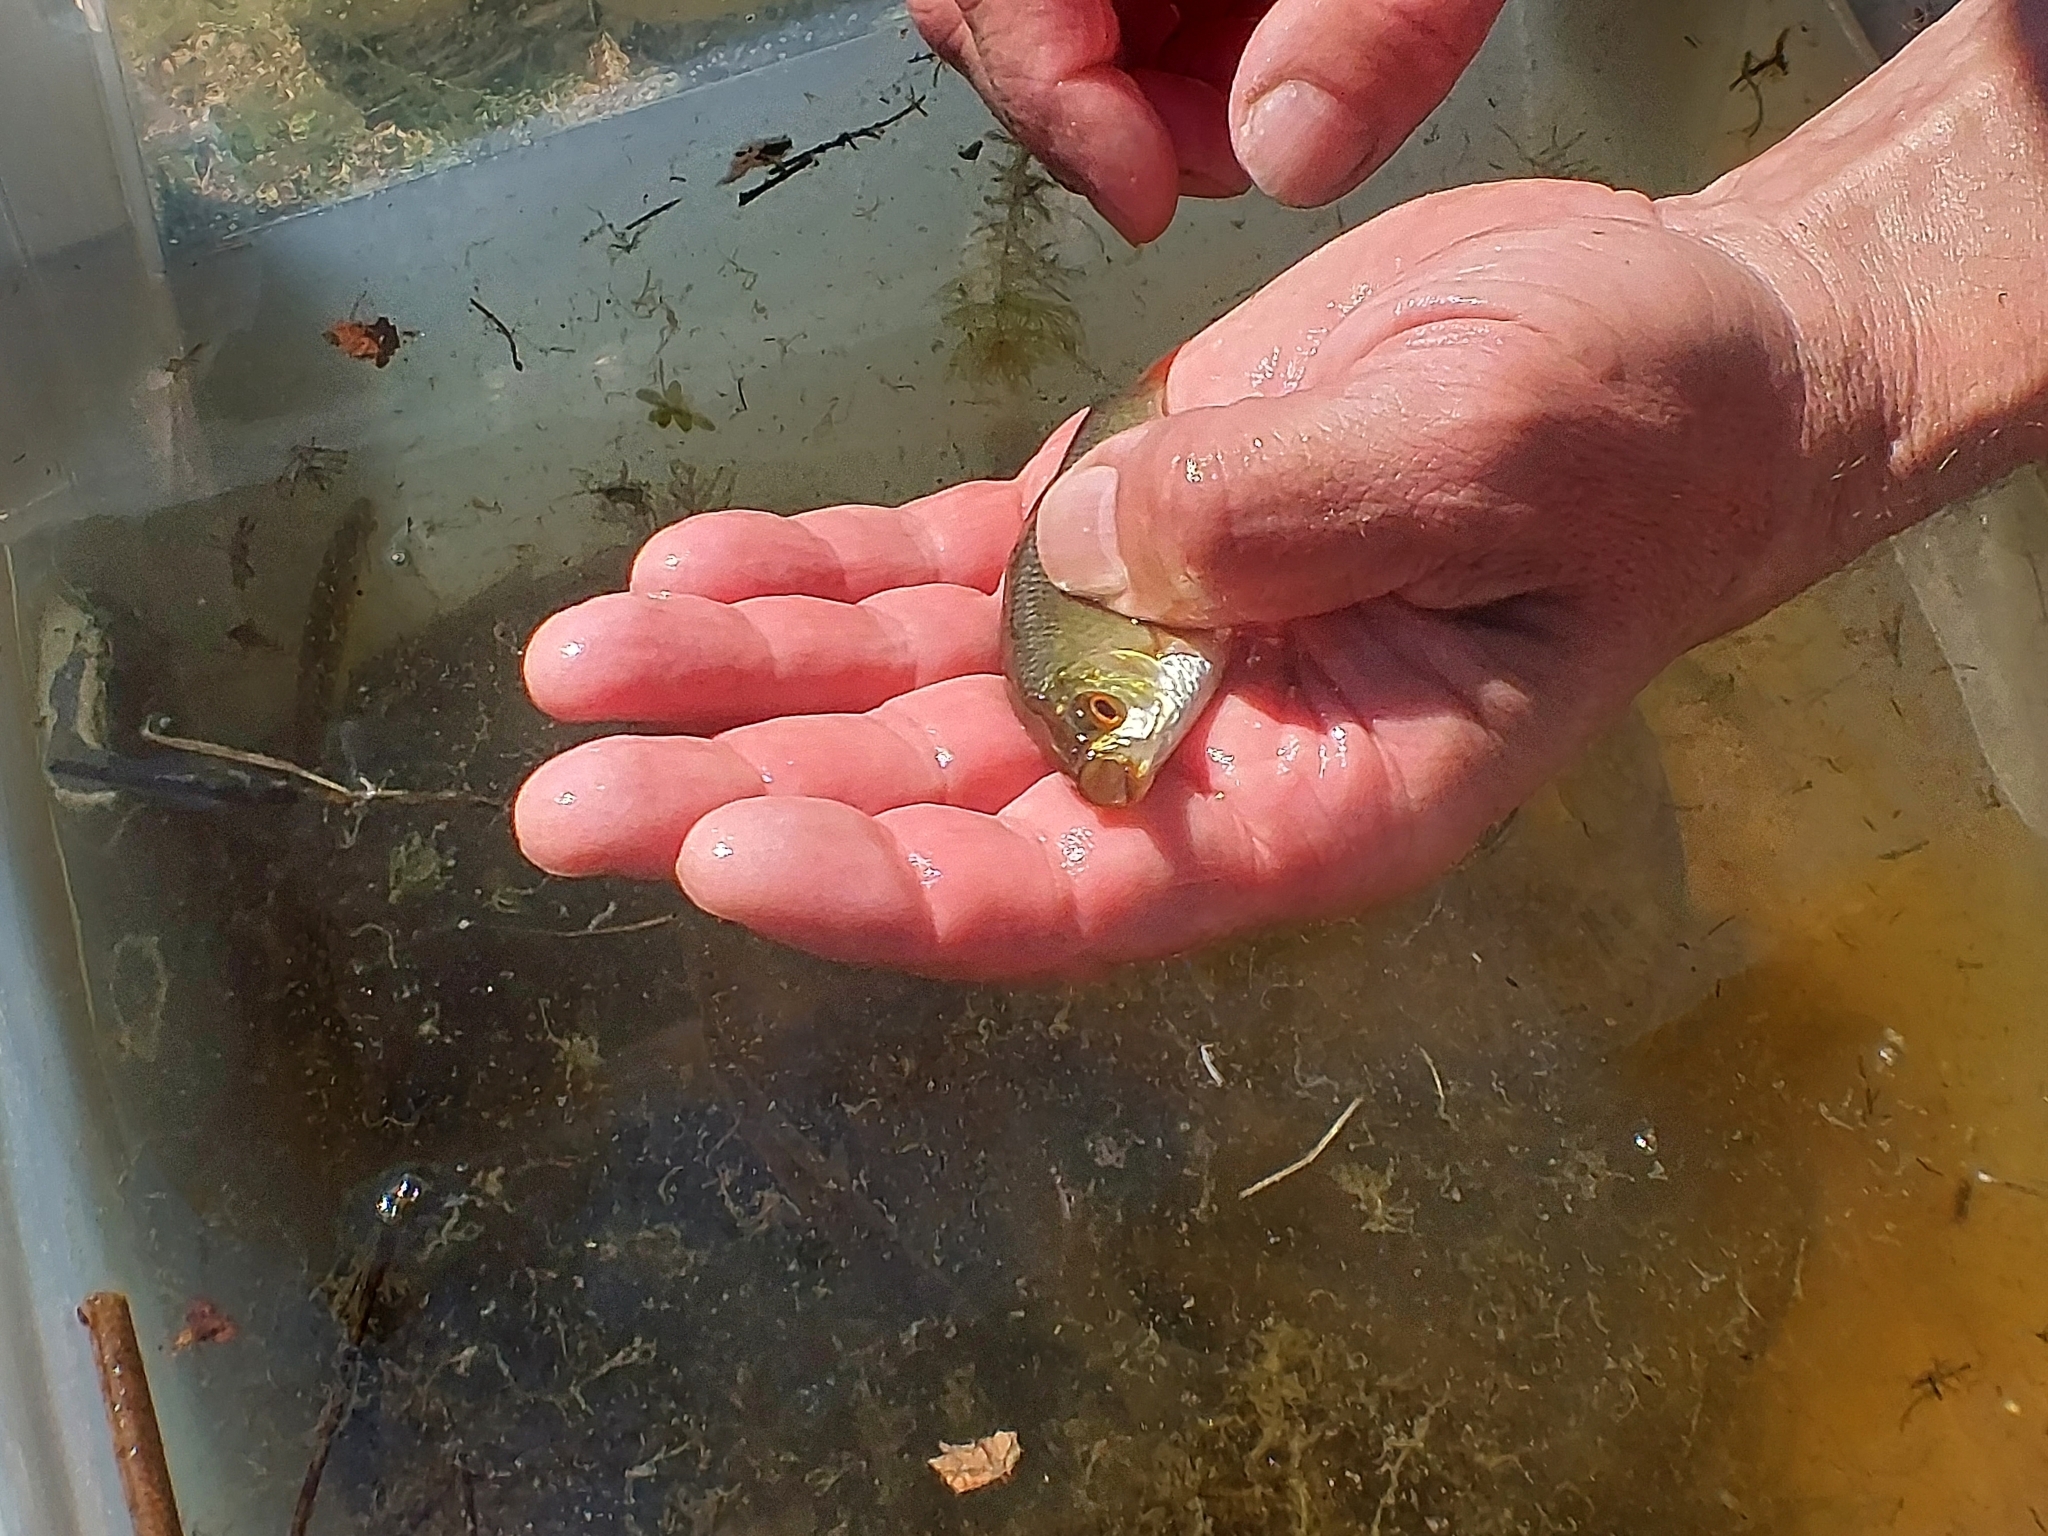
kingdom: Animalia
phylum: Chordata
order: Cypriniformes
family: Cyprinidae
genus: Scardinius
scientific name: Scardinius erythrophthalmus
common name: Rudd
